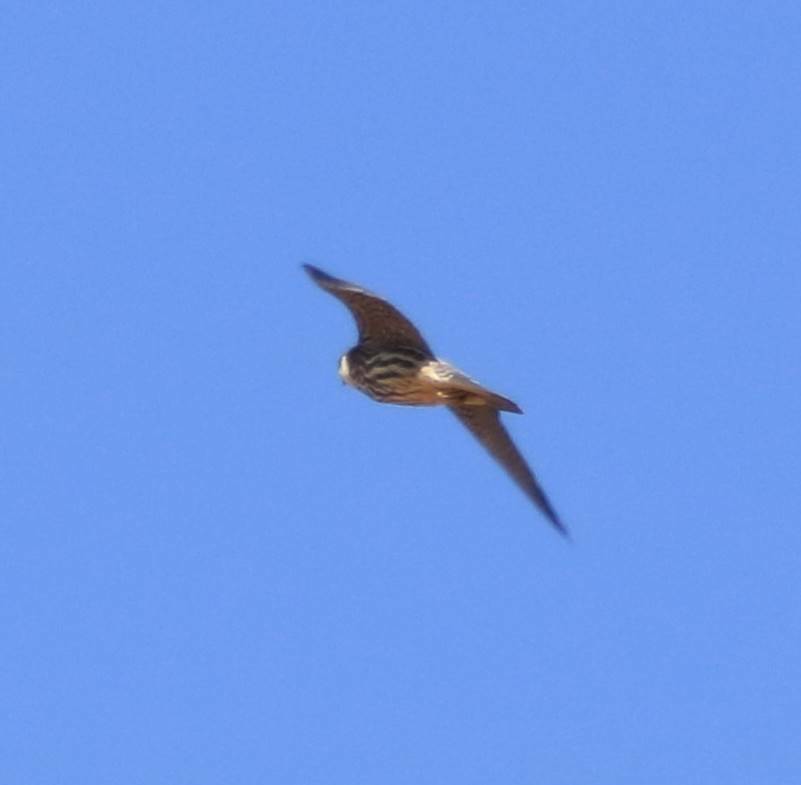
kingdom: Animalia
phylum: Chordata
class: Aves
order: Falconiformes
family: Falconidae
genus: Falco
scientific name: Falco subbuteo
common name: Eurasian hobby
